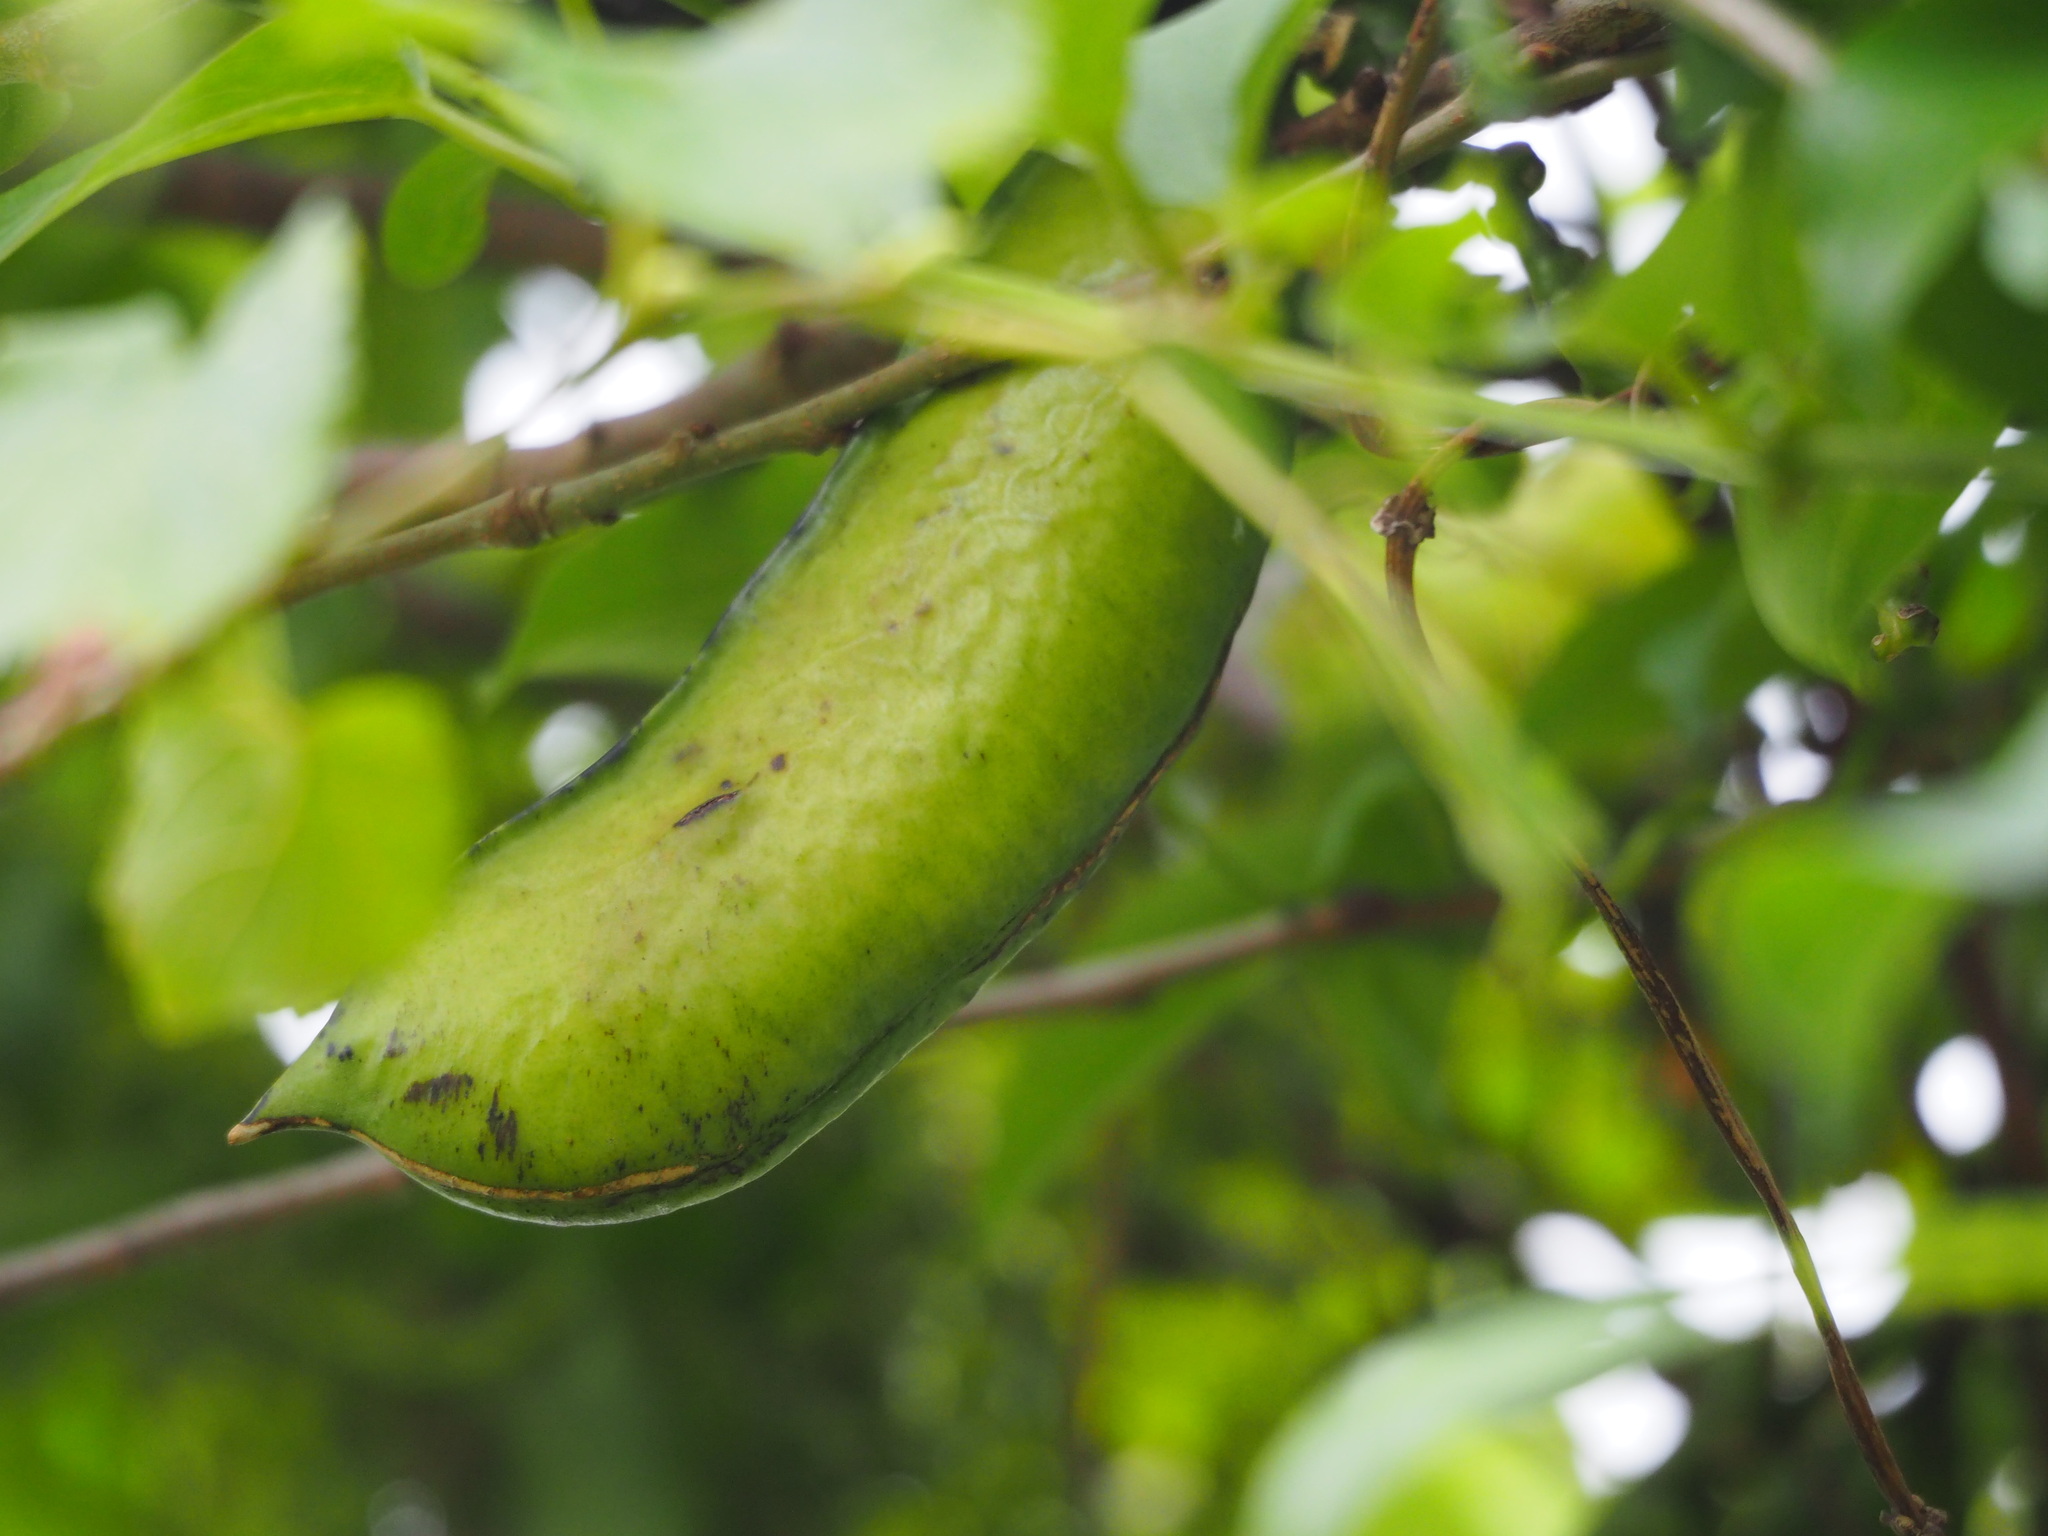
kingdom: Plantae
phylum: Tracheophyta
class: Magnoliopsida
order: Fabales
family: Fabaceae
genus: Canavalia
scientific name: Canavalia lineata
